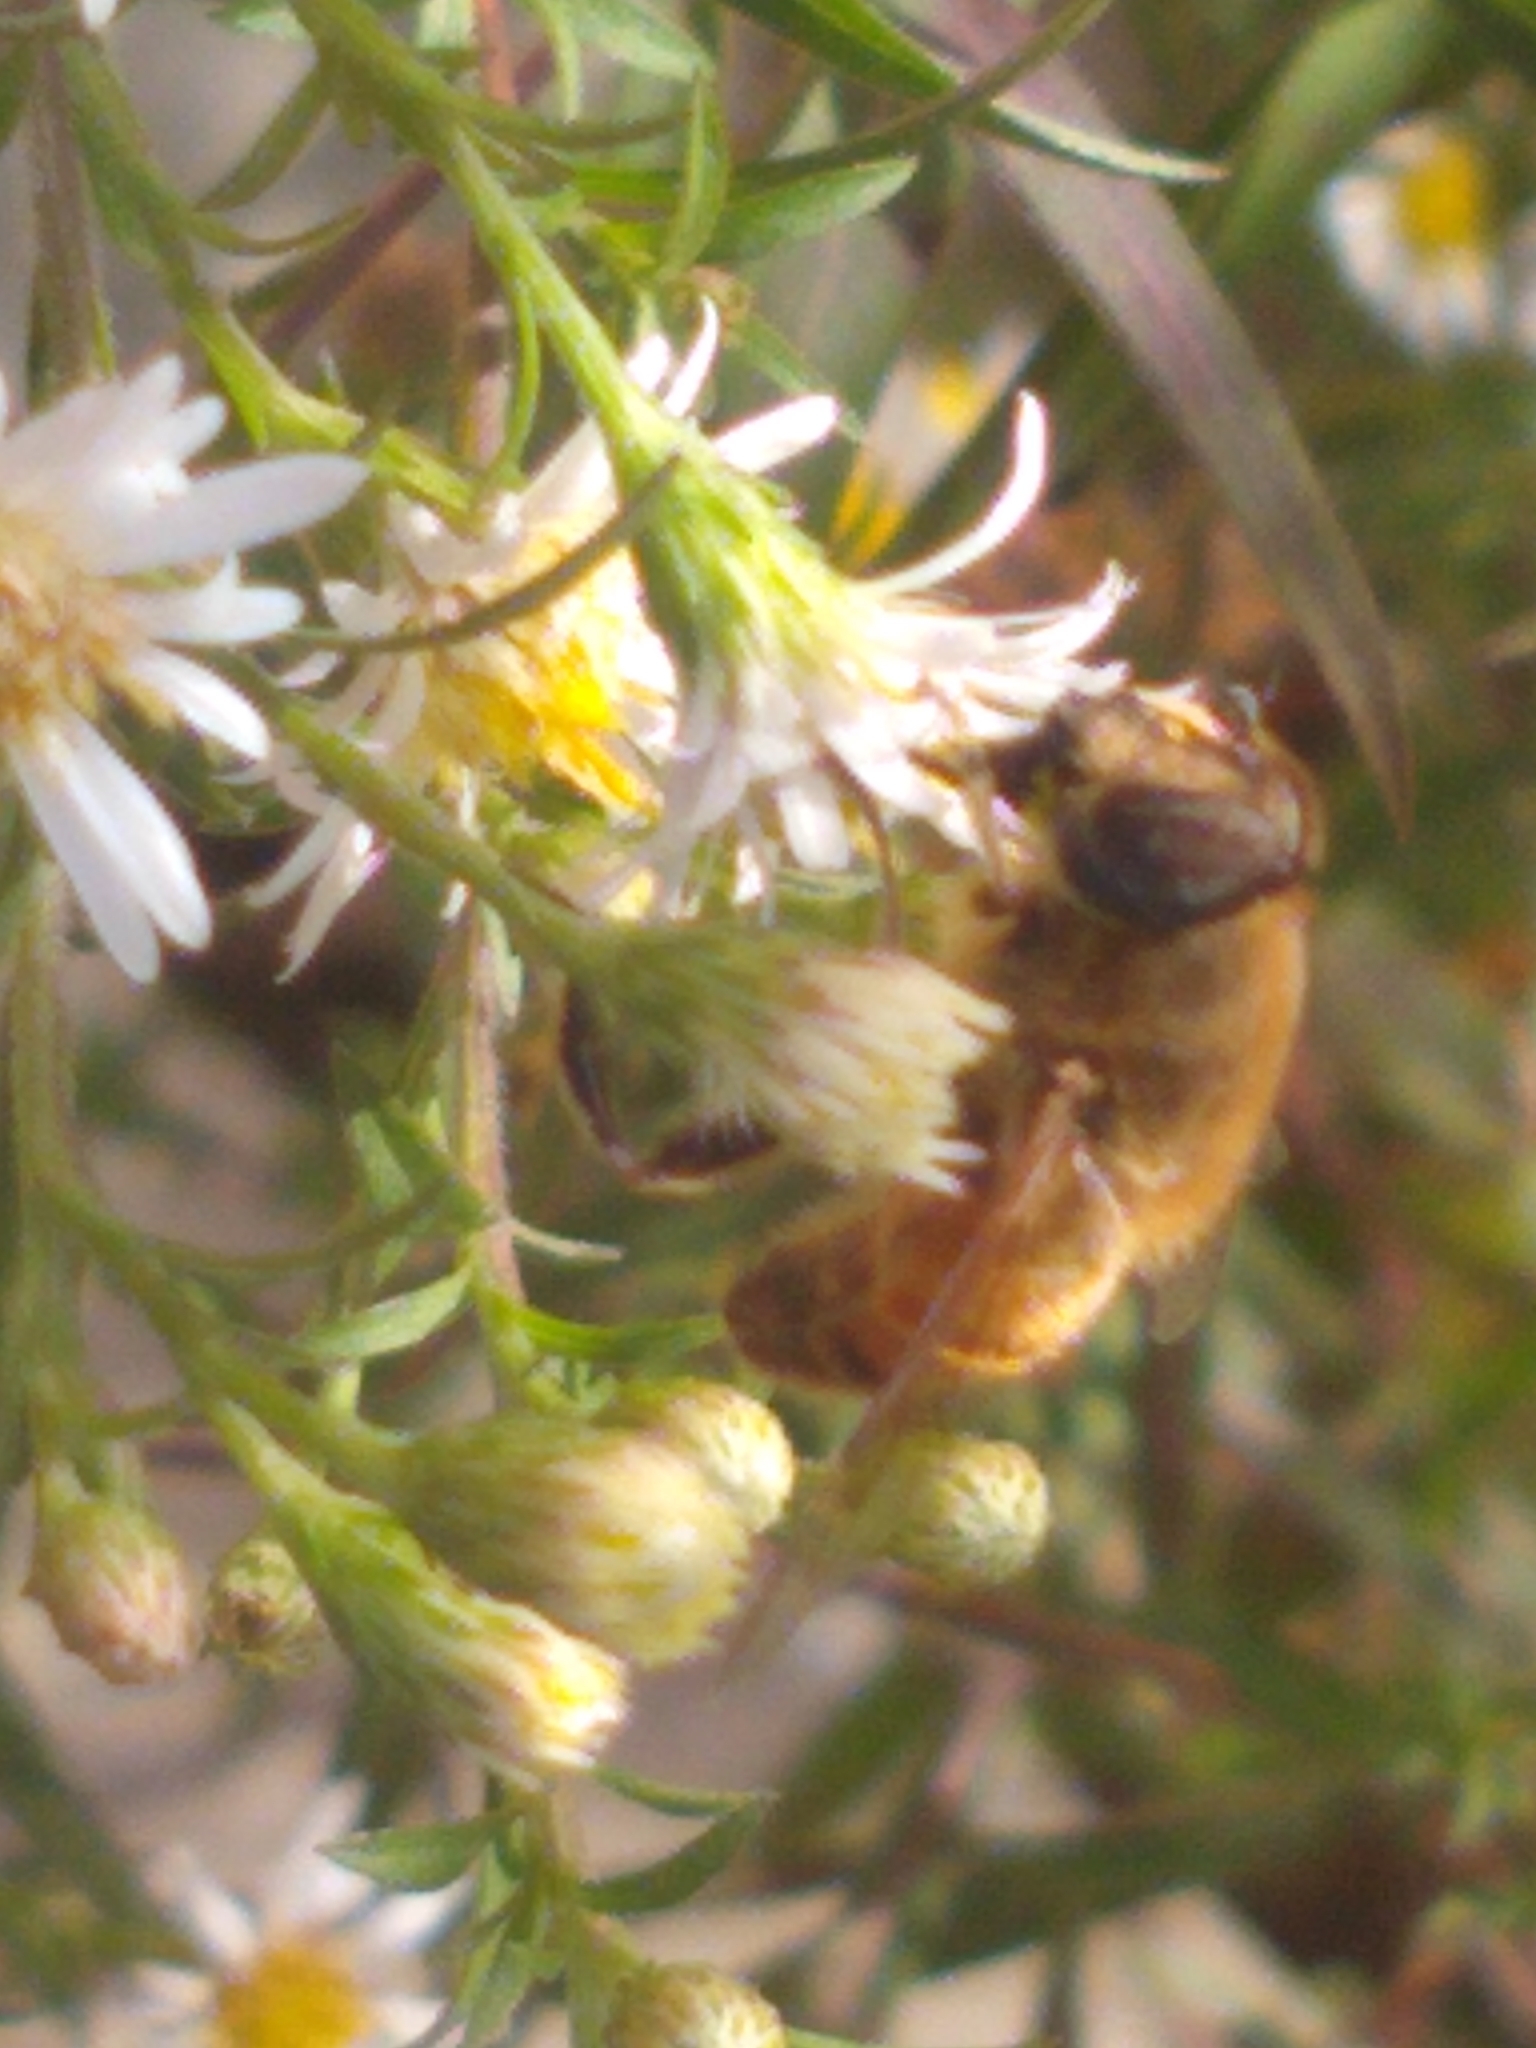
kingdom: Animalia
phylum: Arthropoda
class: Insecta
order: Diptera
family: Syrphidae
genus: Eristalis
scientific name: Eristalis tenax
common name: Drone fly
